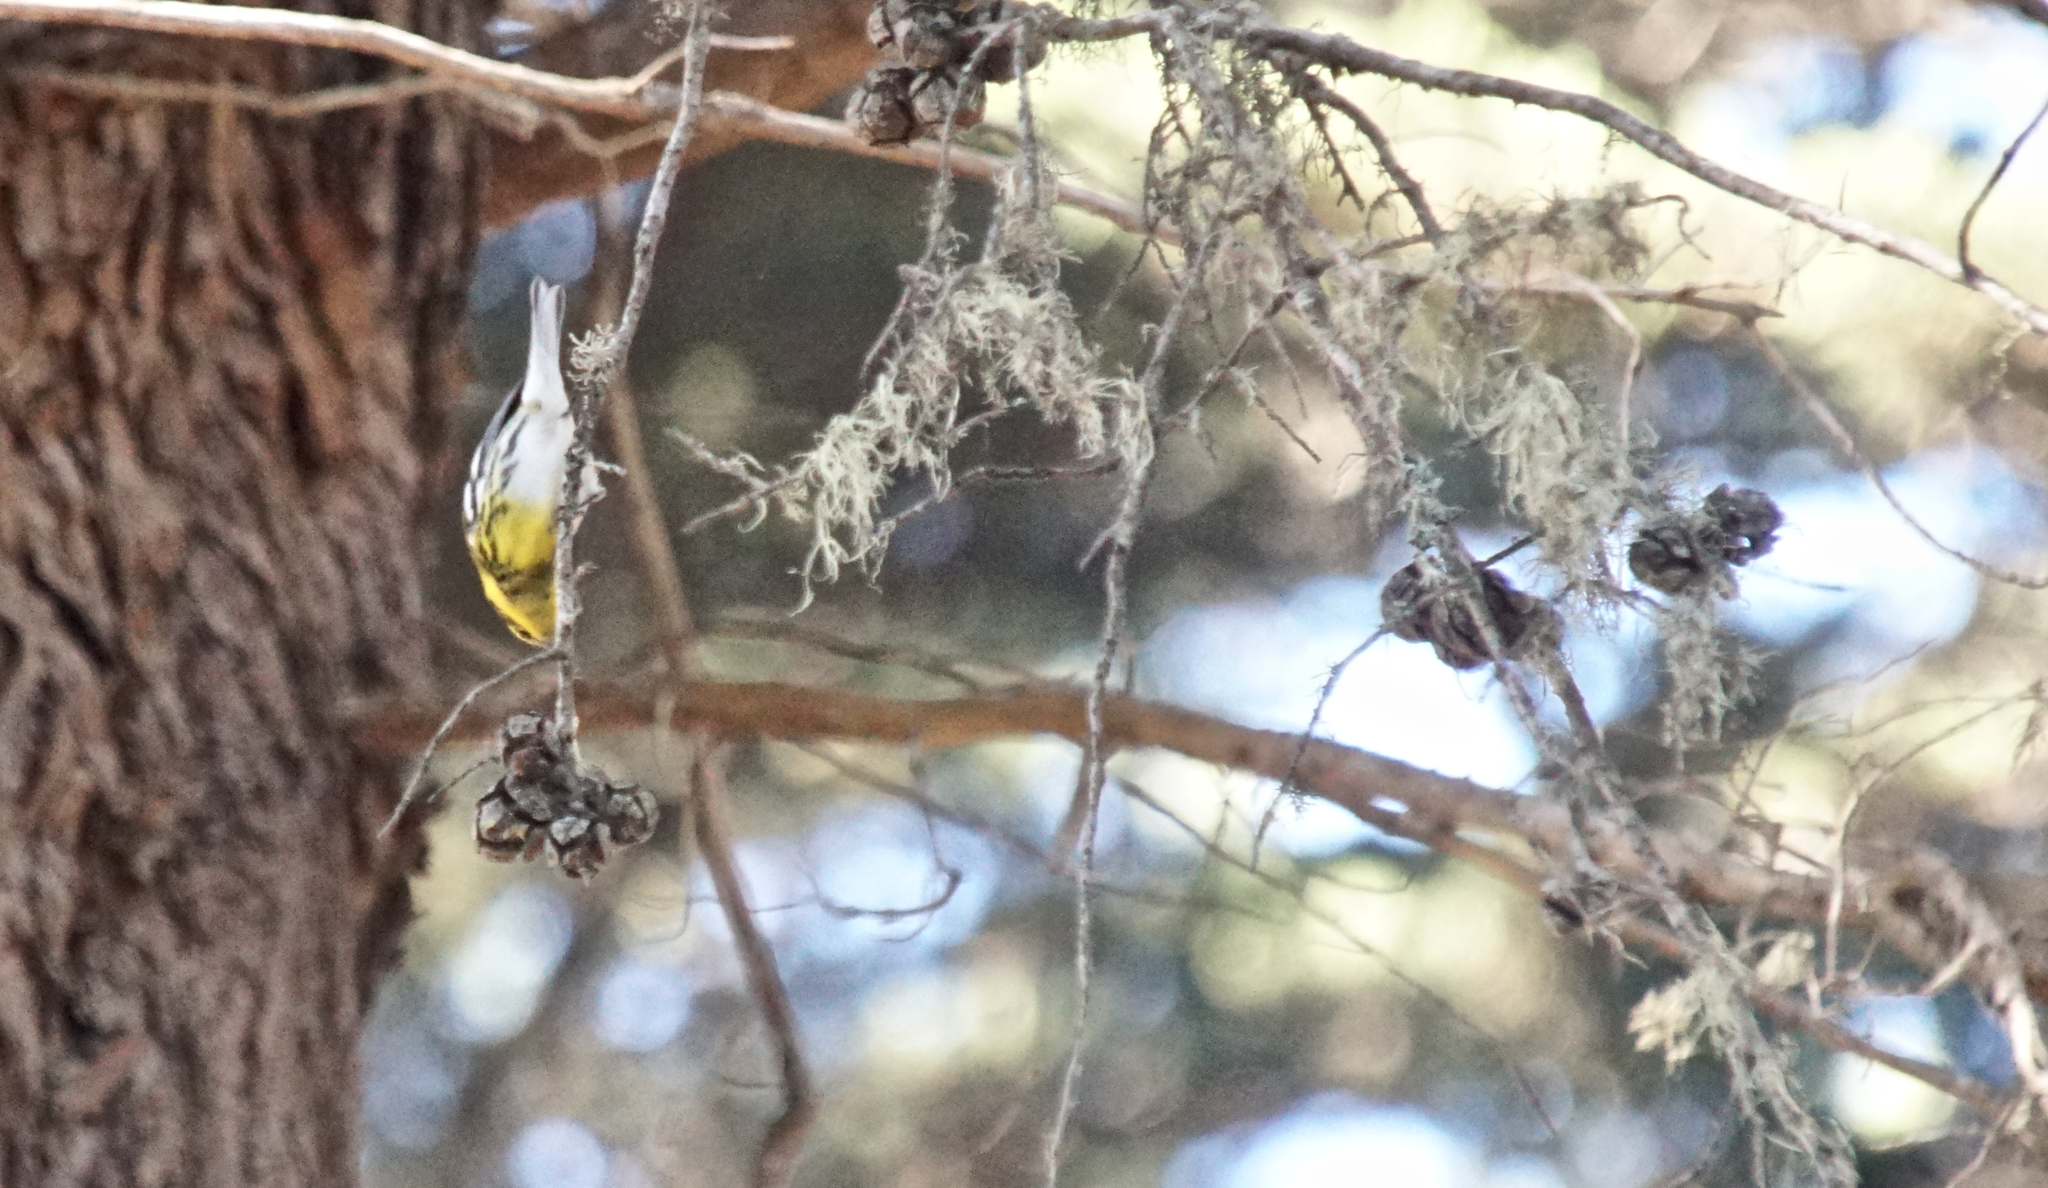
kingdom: Animalia
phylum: Chordata
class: Aves
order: Passeriformes
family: Parulidae
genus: Setophaga
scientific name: Setophaga townsendi
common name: Townsend's warbler
